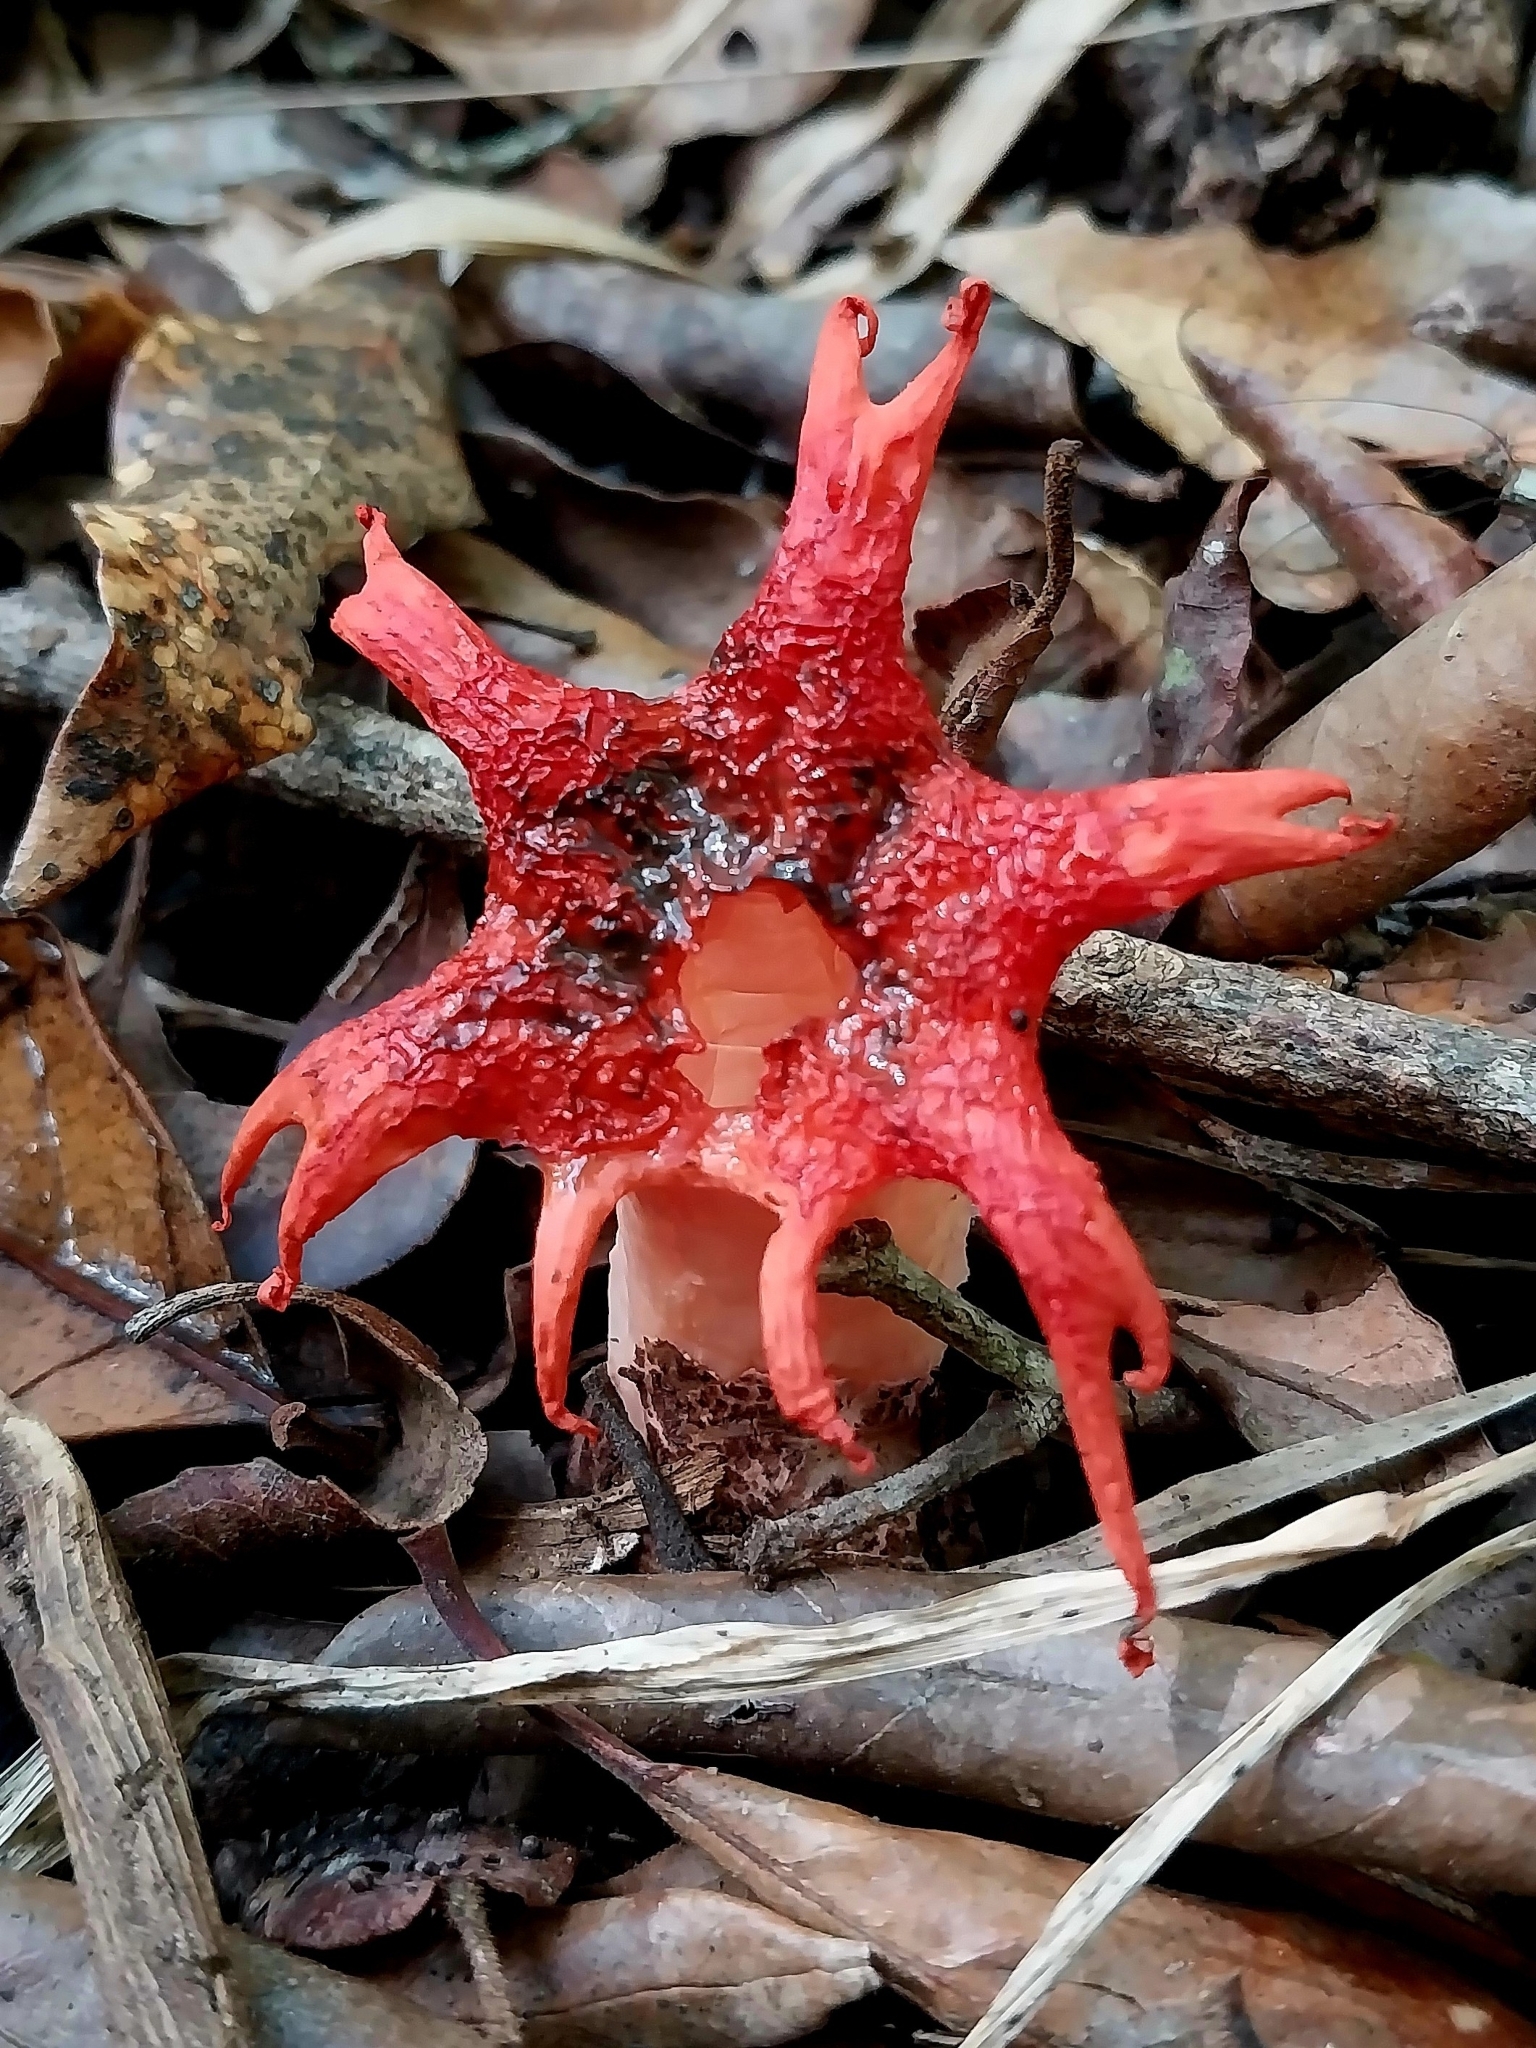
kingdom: Fungi
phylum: Basidiomycota
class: Agaricomycetes
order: Phallales
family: Phallaceae
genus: Aseroe
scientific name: Aseroe rubra
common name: Starfish fungus
